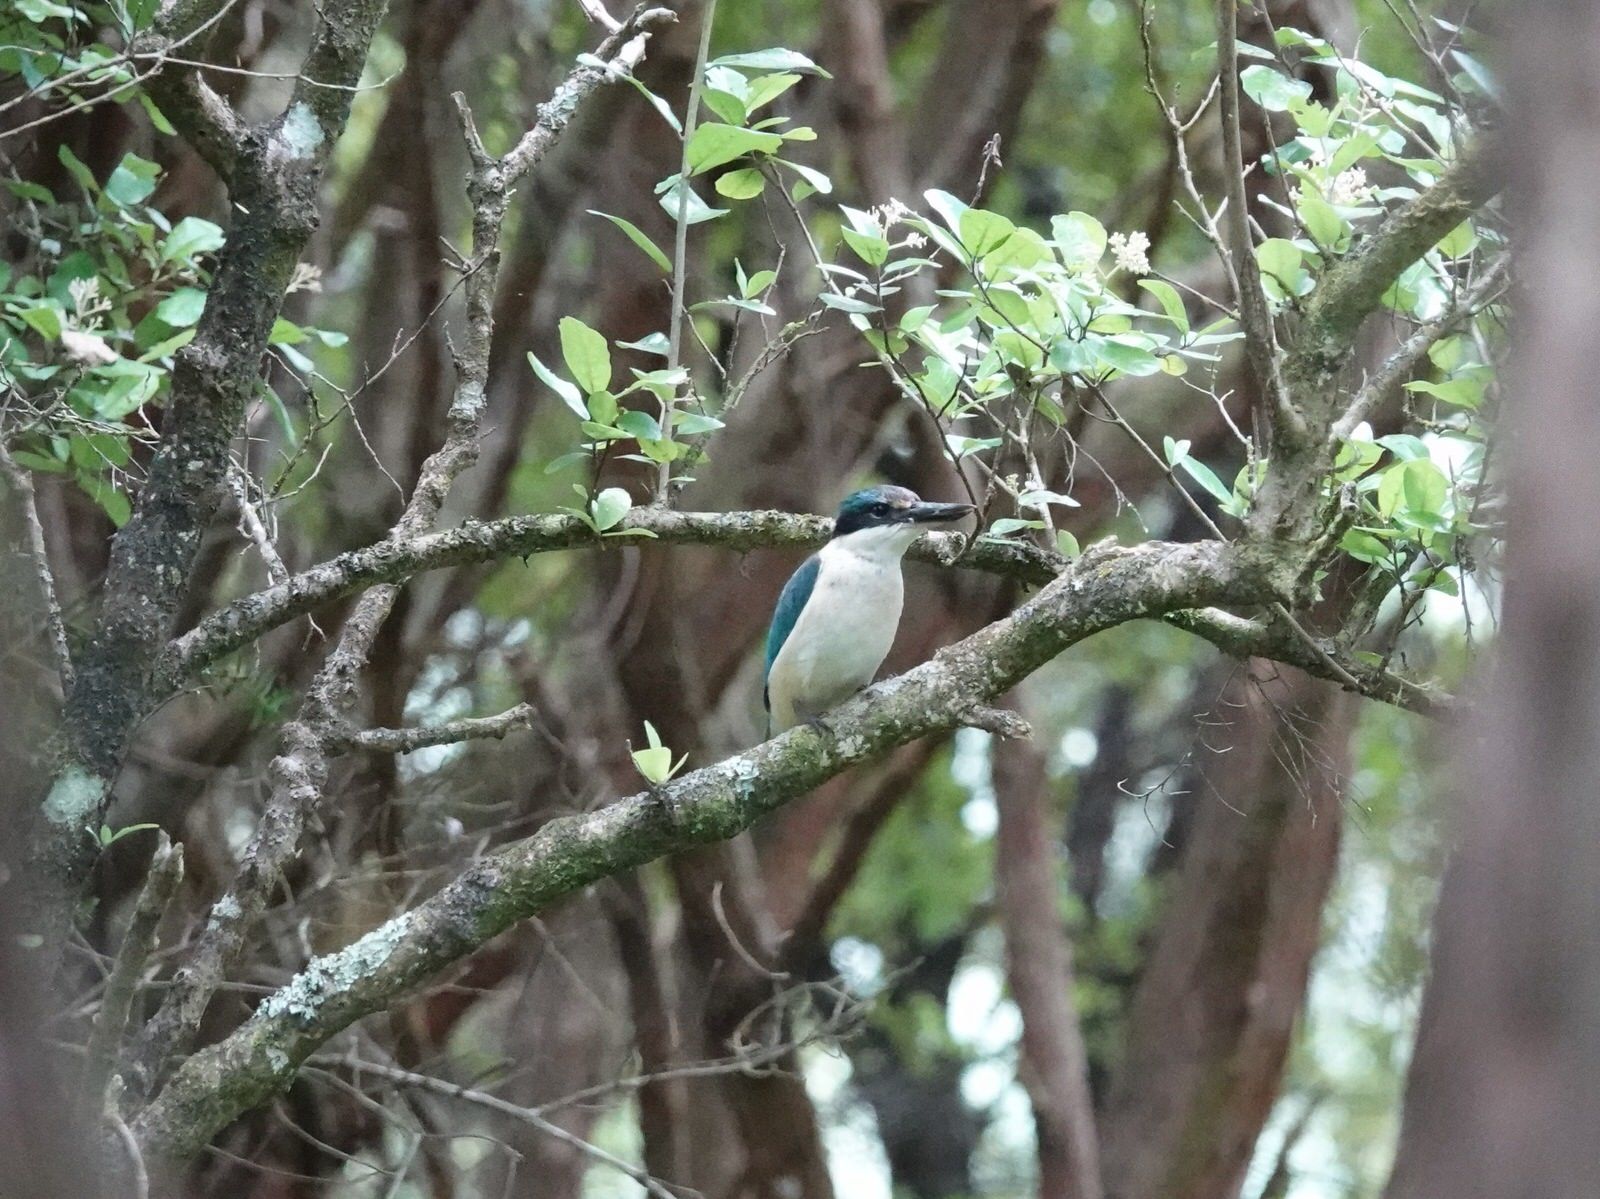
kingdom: Animalia
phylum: Chordata
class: Aves
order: Coraciiformes
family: Alcedinidae
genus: Todiramphus
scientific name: Todiramphus sanctus
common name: Sacred kingfisher
